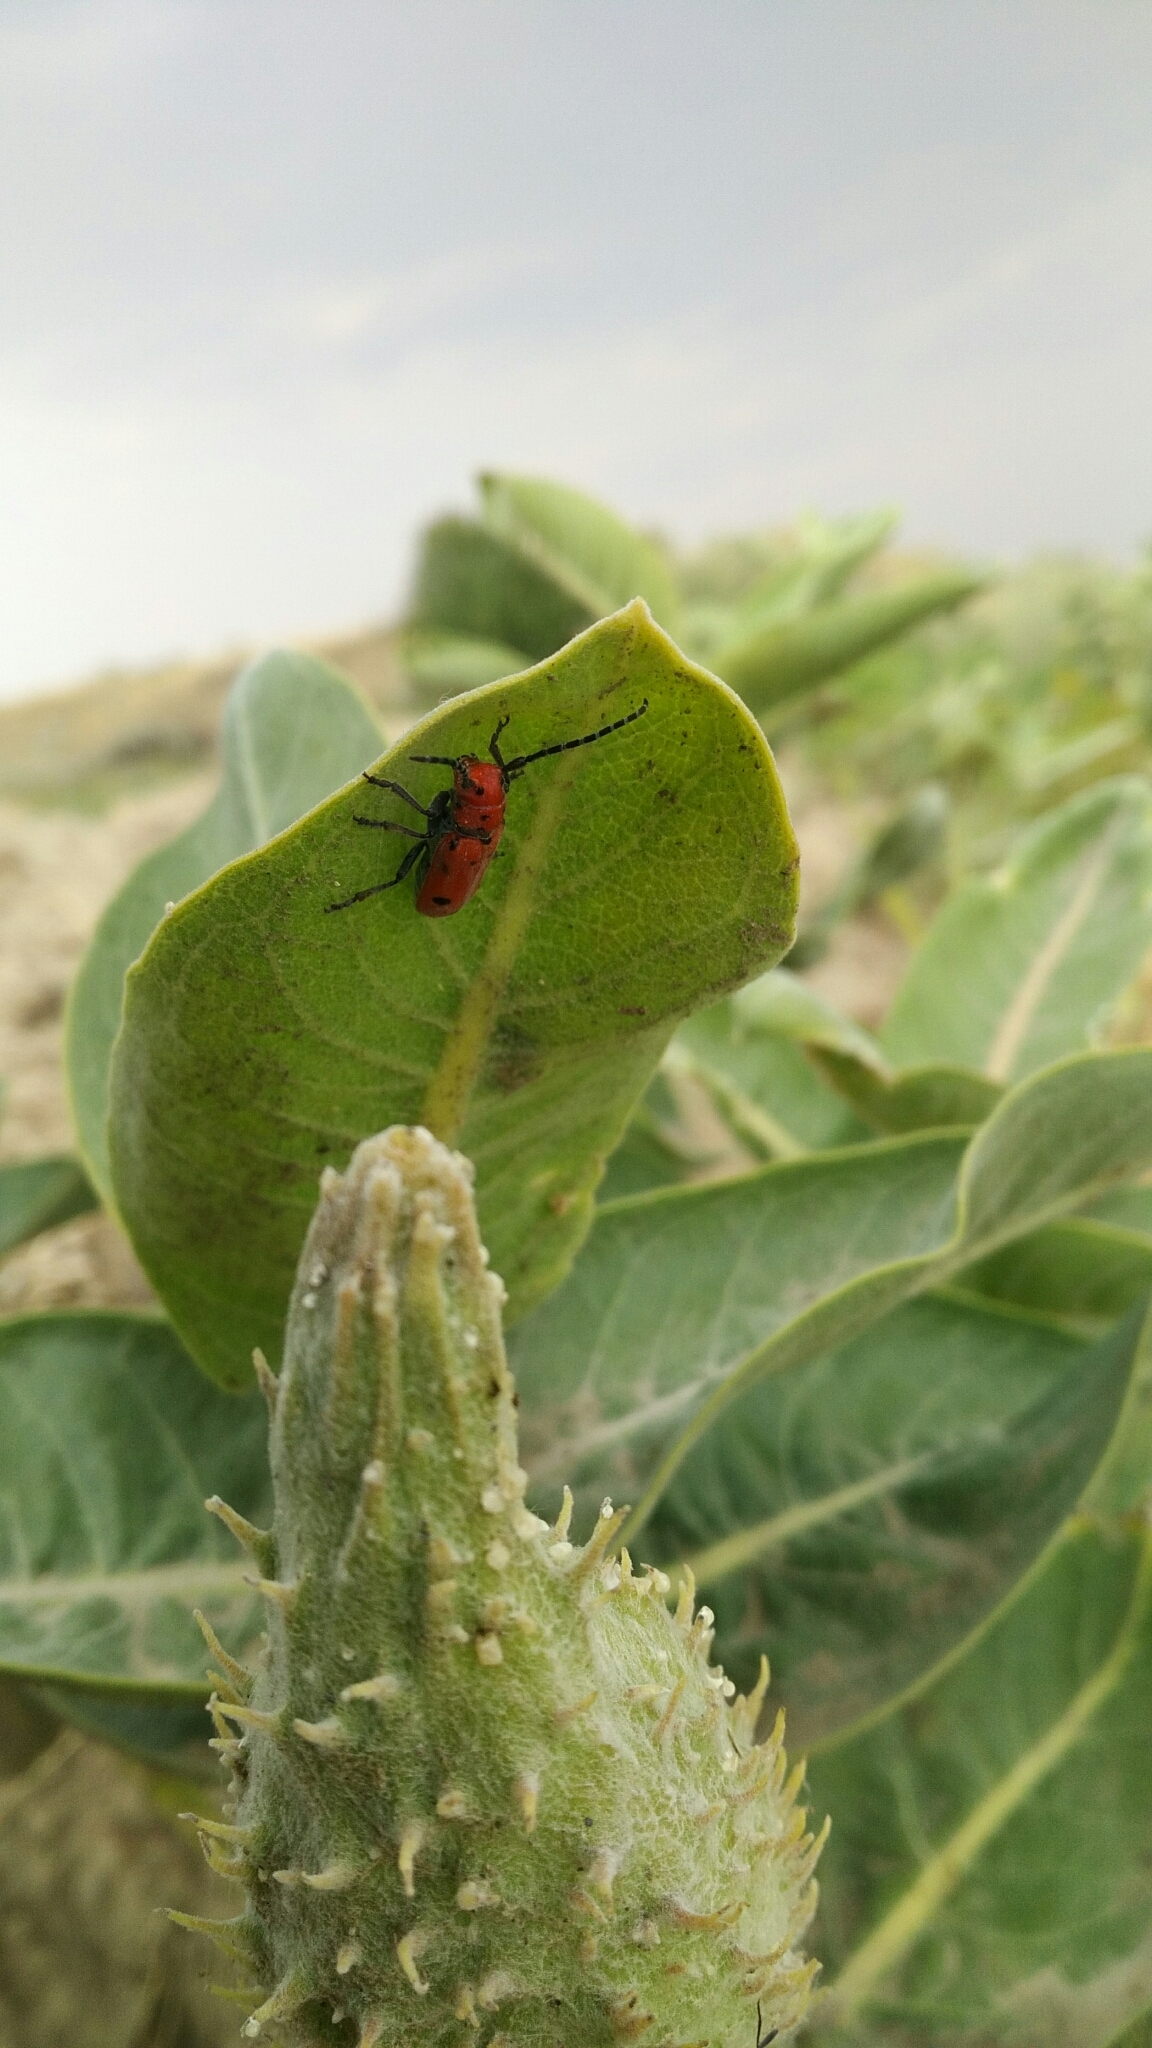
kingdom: Animalia
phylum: Arthropoda
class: Insecta
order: Coleoptera
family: Cerambycidae
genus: Tetraopes
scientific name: Tetraopes femoratus
